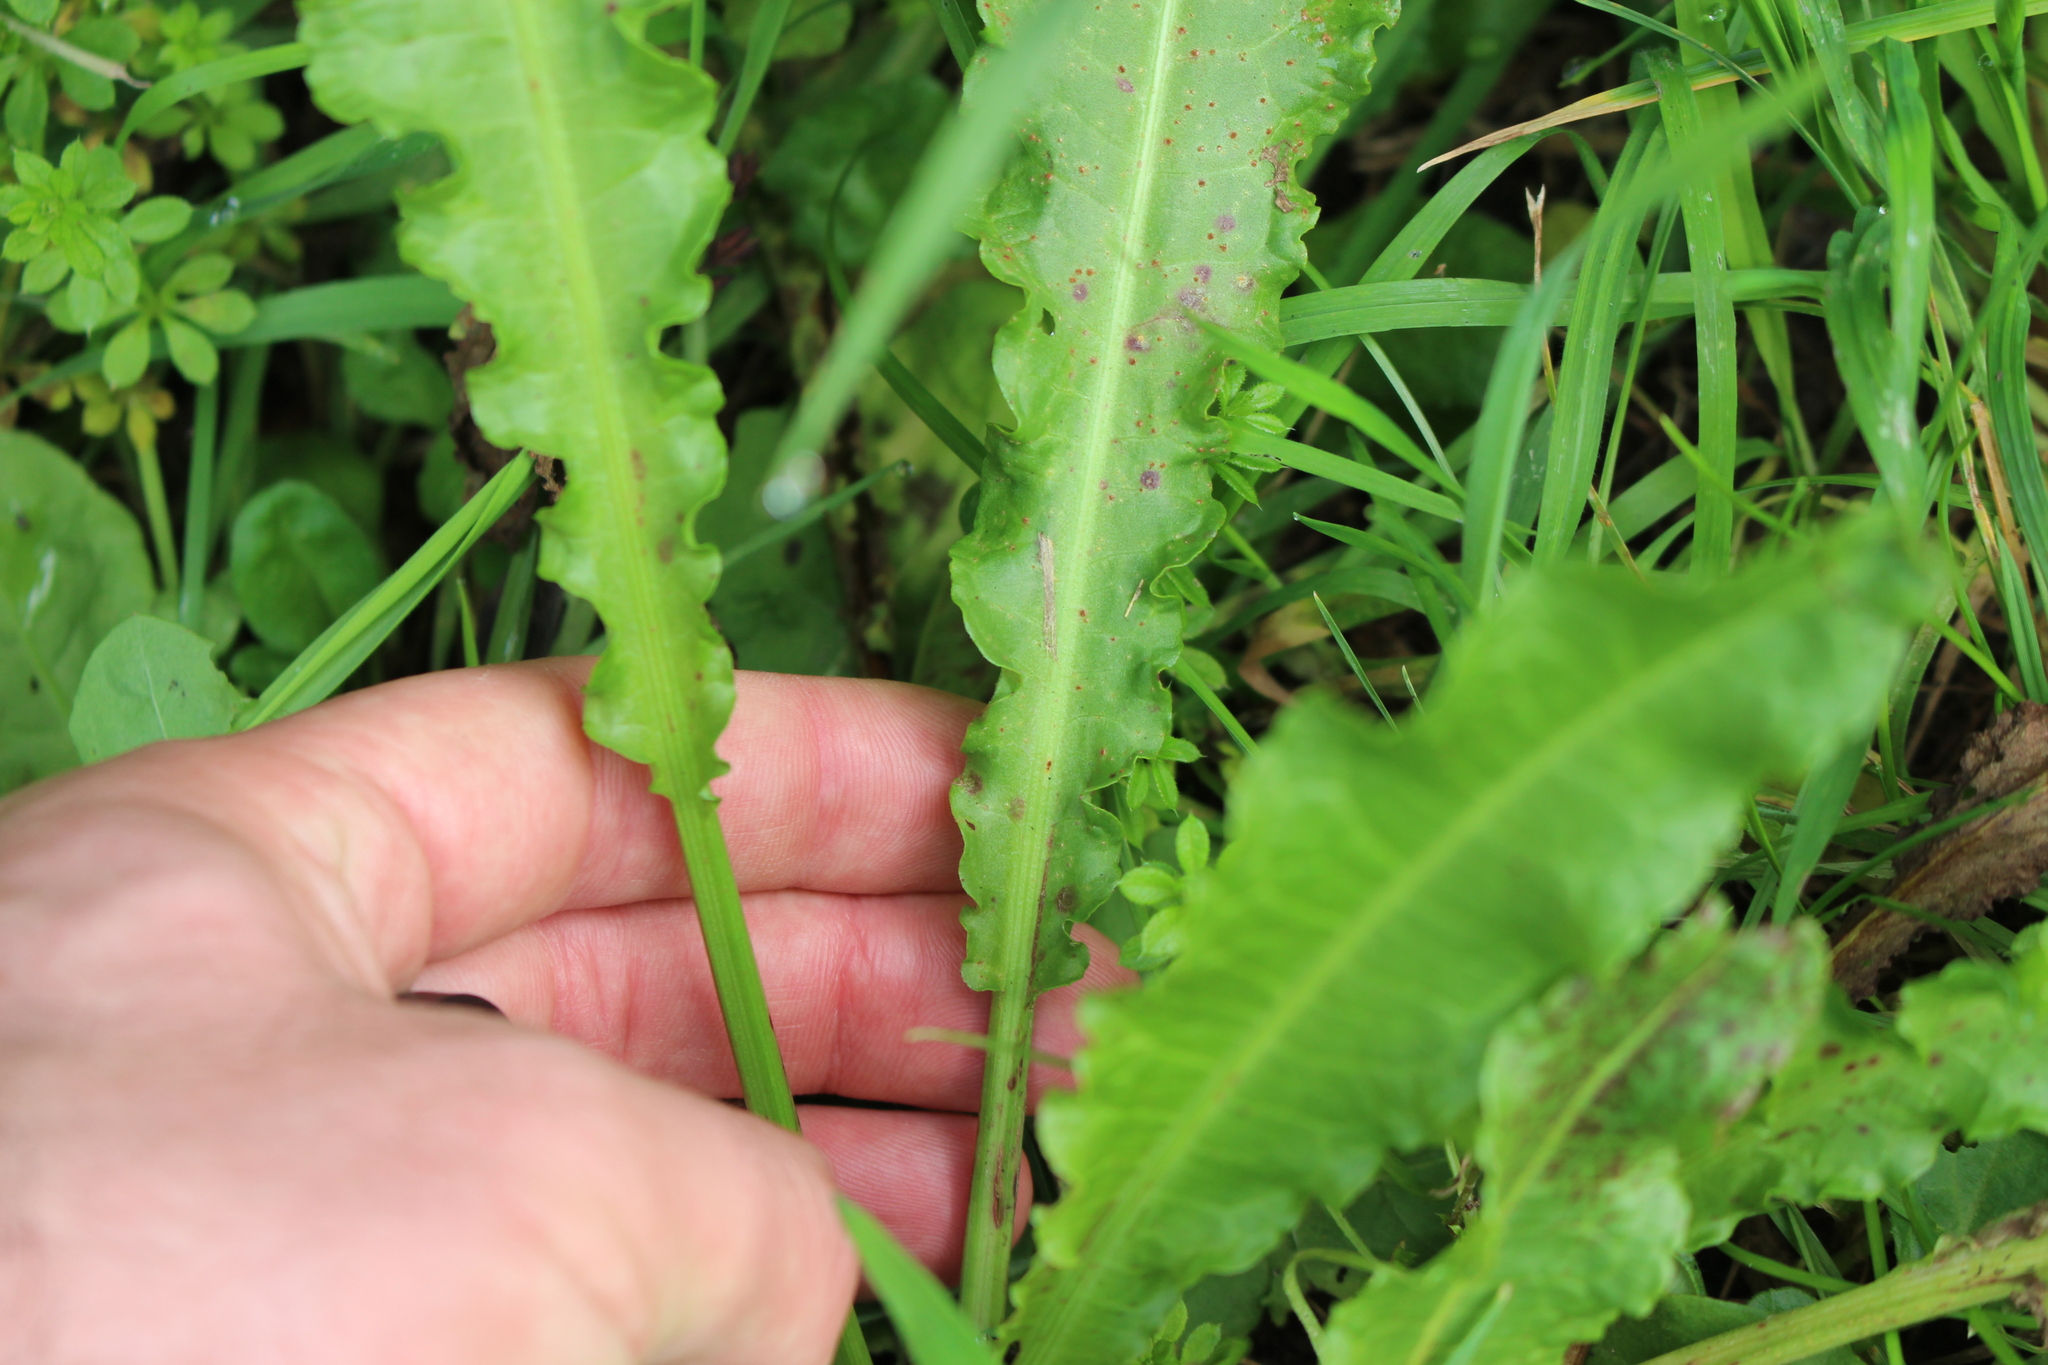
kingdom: Plantae
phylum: Tracheophyta
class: Magnoliopsida
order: Caryophyllales
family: Polygonaceae
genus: Rumex
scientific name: Rumex crispus
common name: Curled dock
